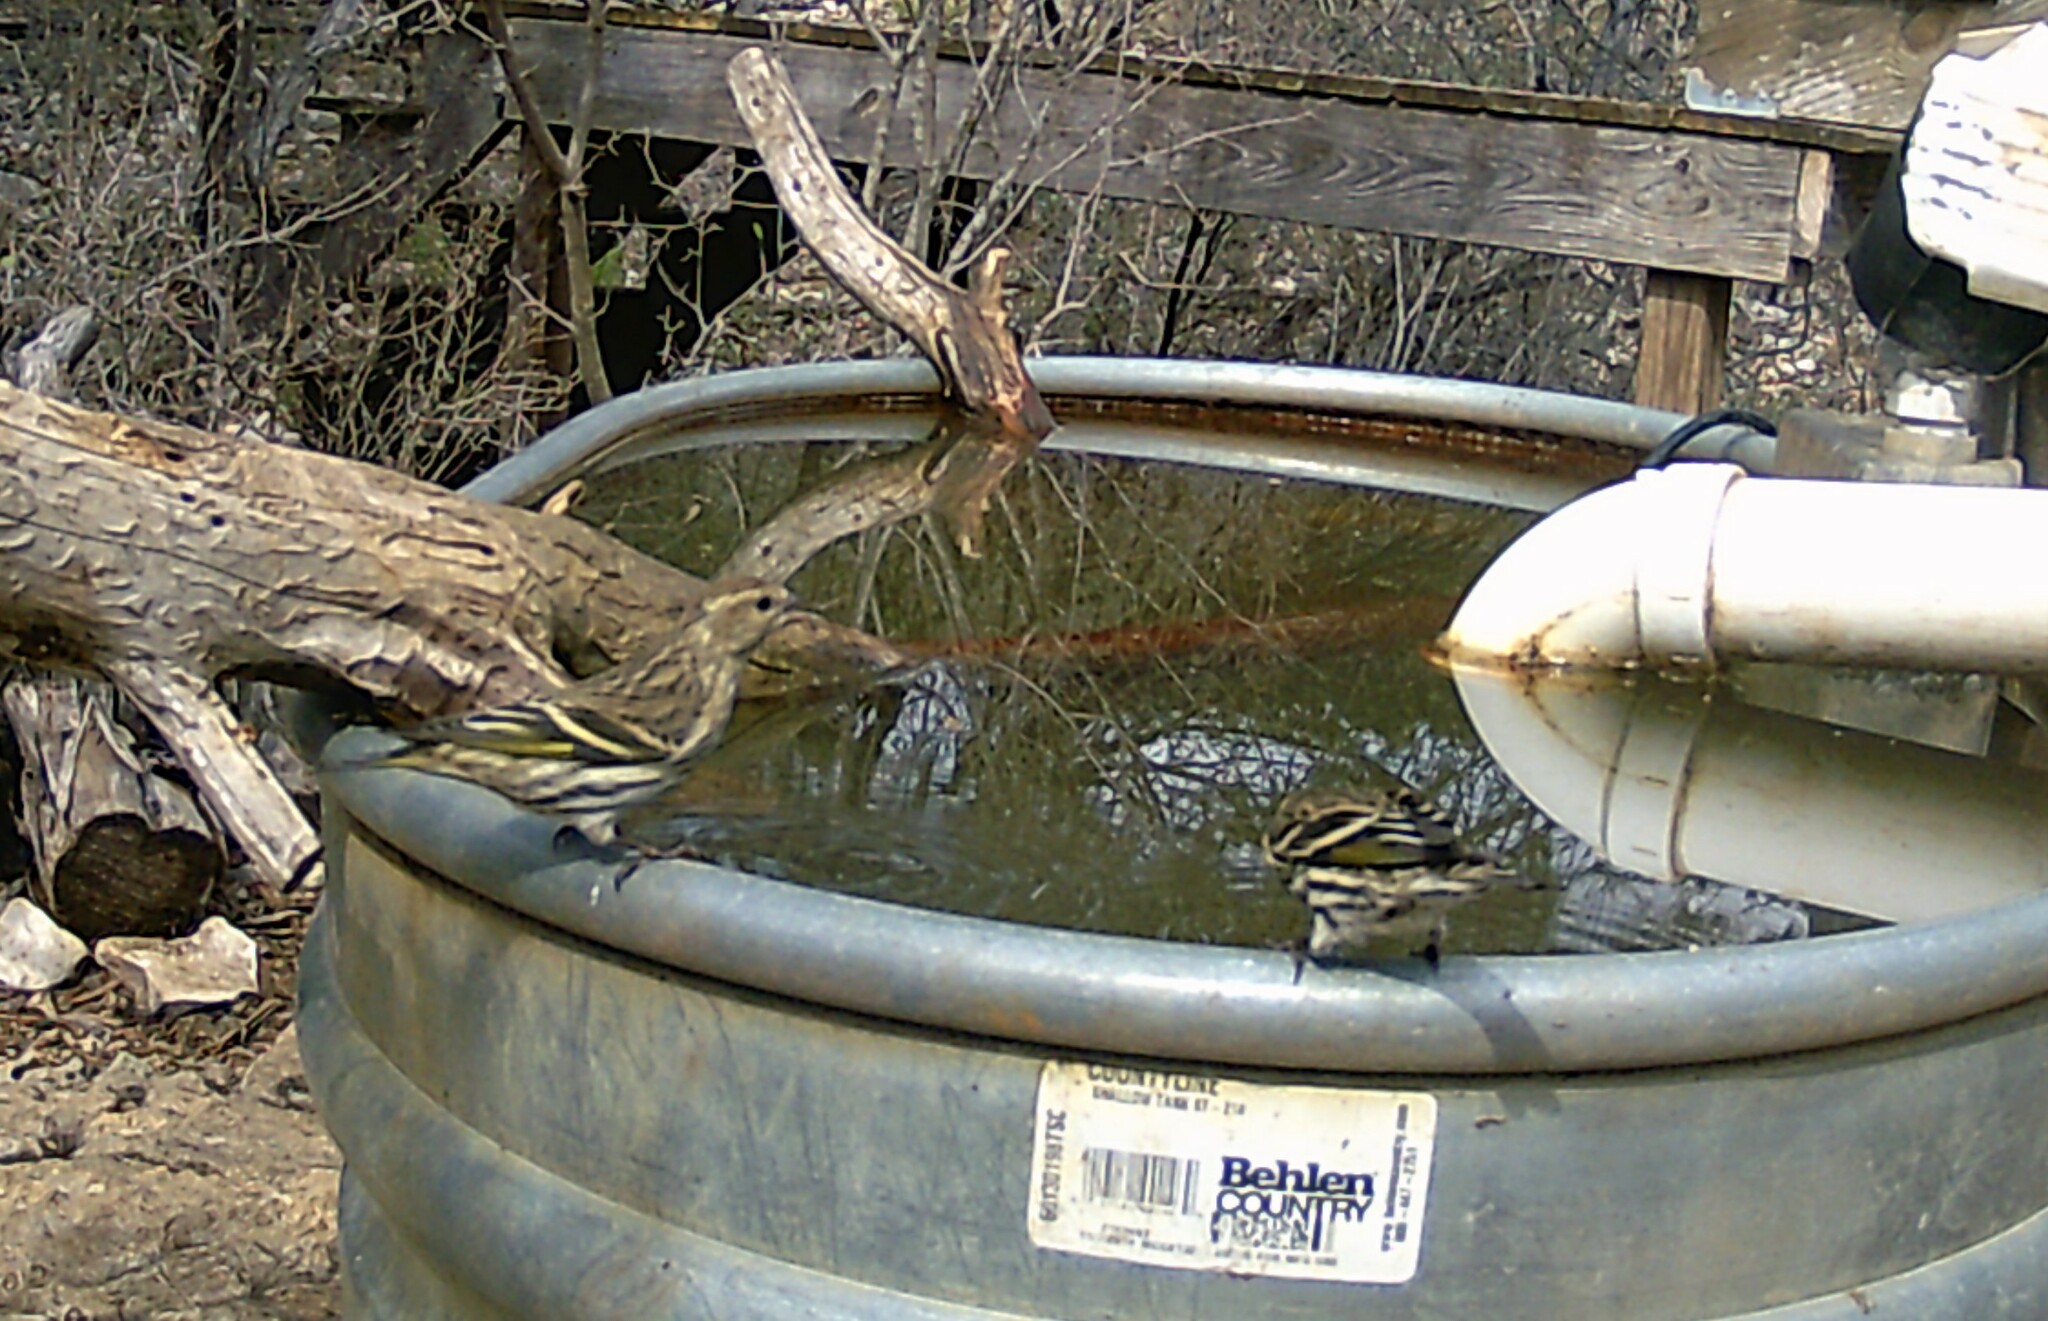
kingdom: Animalia
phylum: Chordata
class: Aves
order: Passeriformes
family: Fringillidae
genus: Spinus
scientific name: Spinus pinus
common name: Pine siskin
